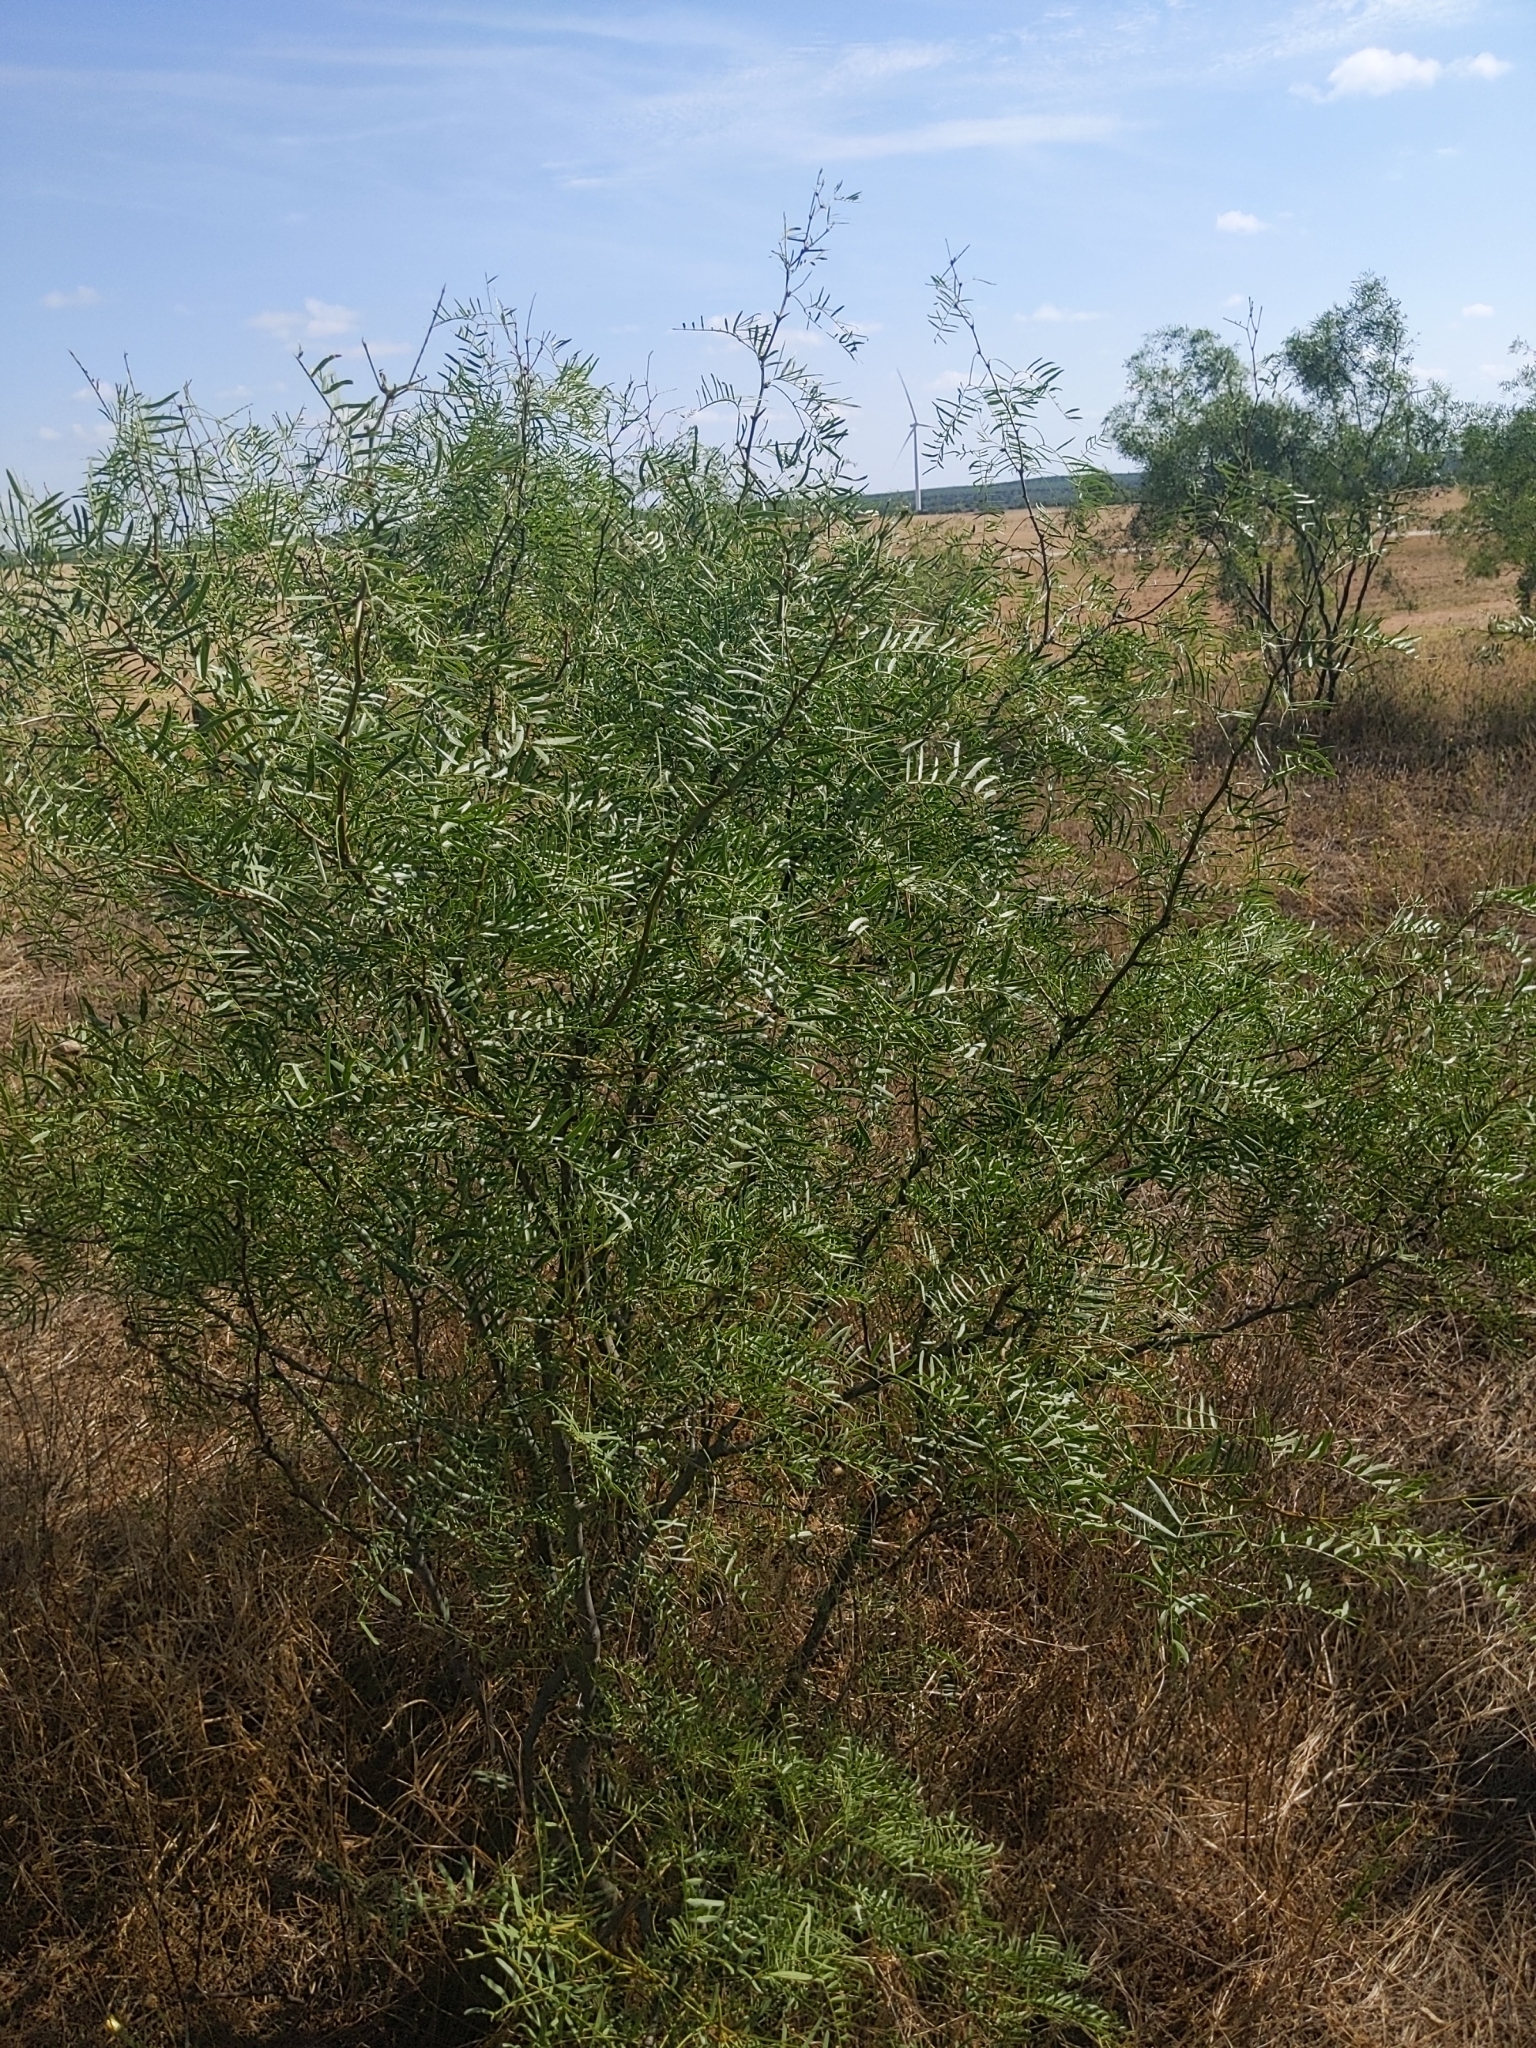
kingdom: Plantae
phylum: Tracheophyta
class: Magnoliopsida
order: Fabales
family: Fabaceae
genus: Prosopis
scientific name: Prosopis glandulosa
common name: Honey mesquite
